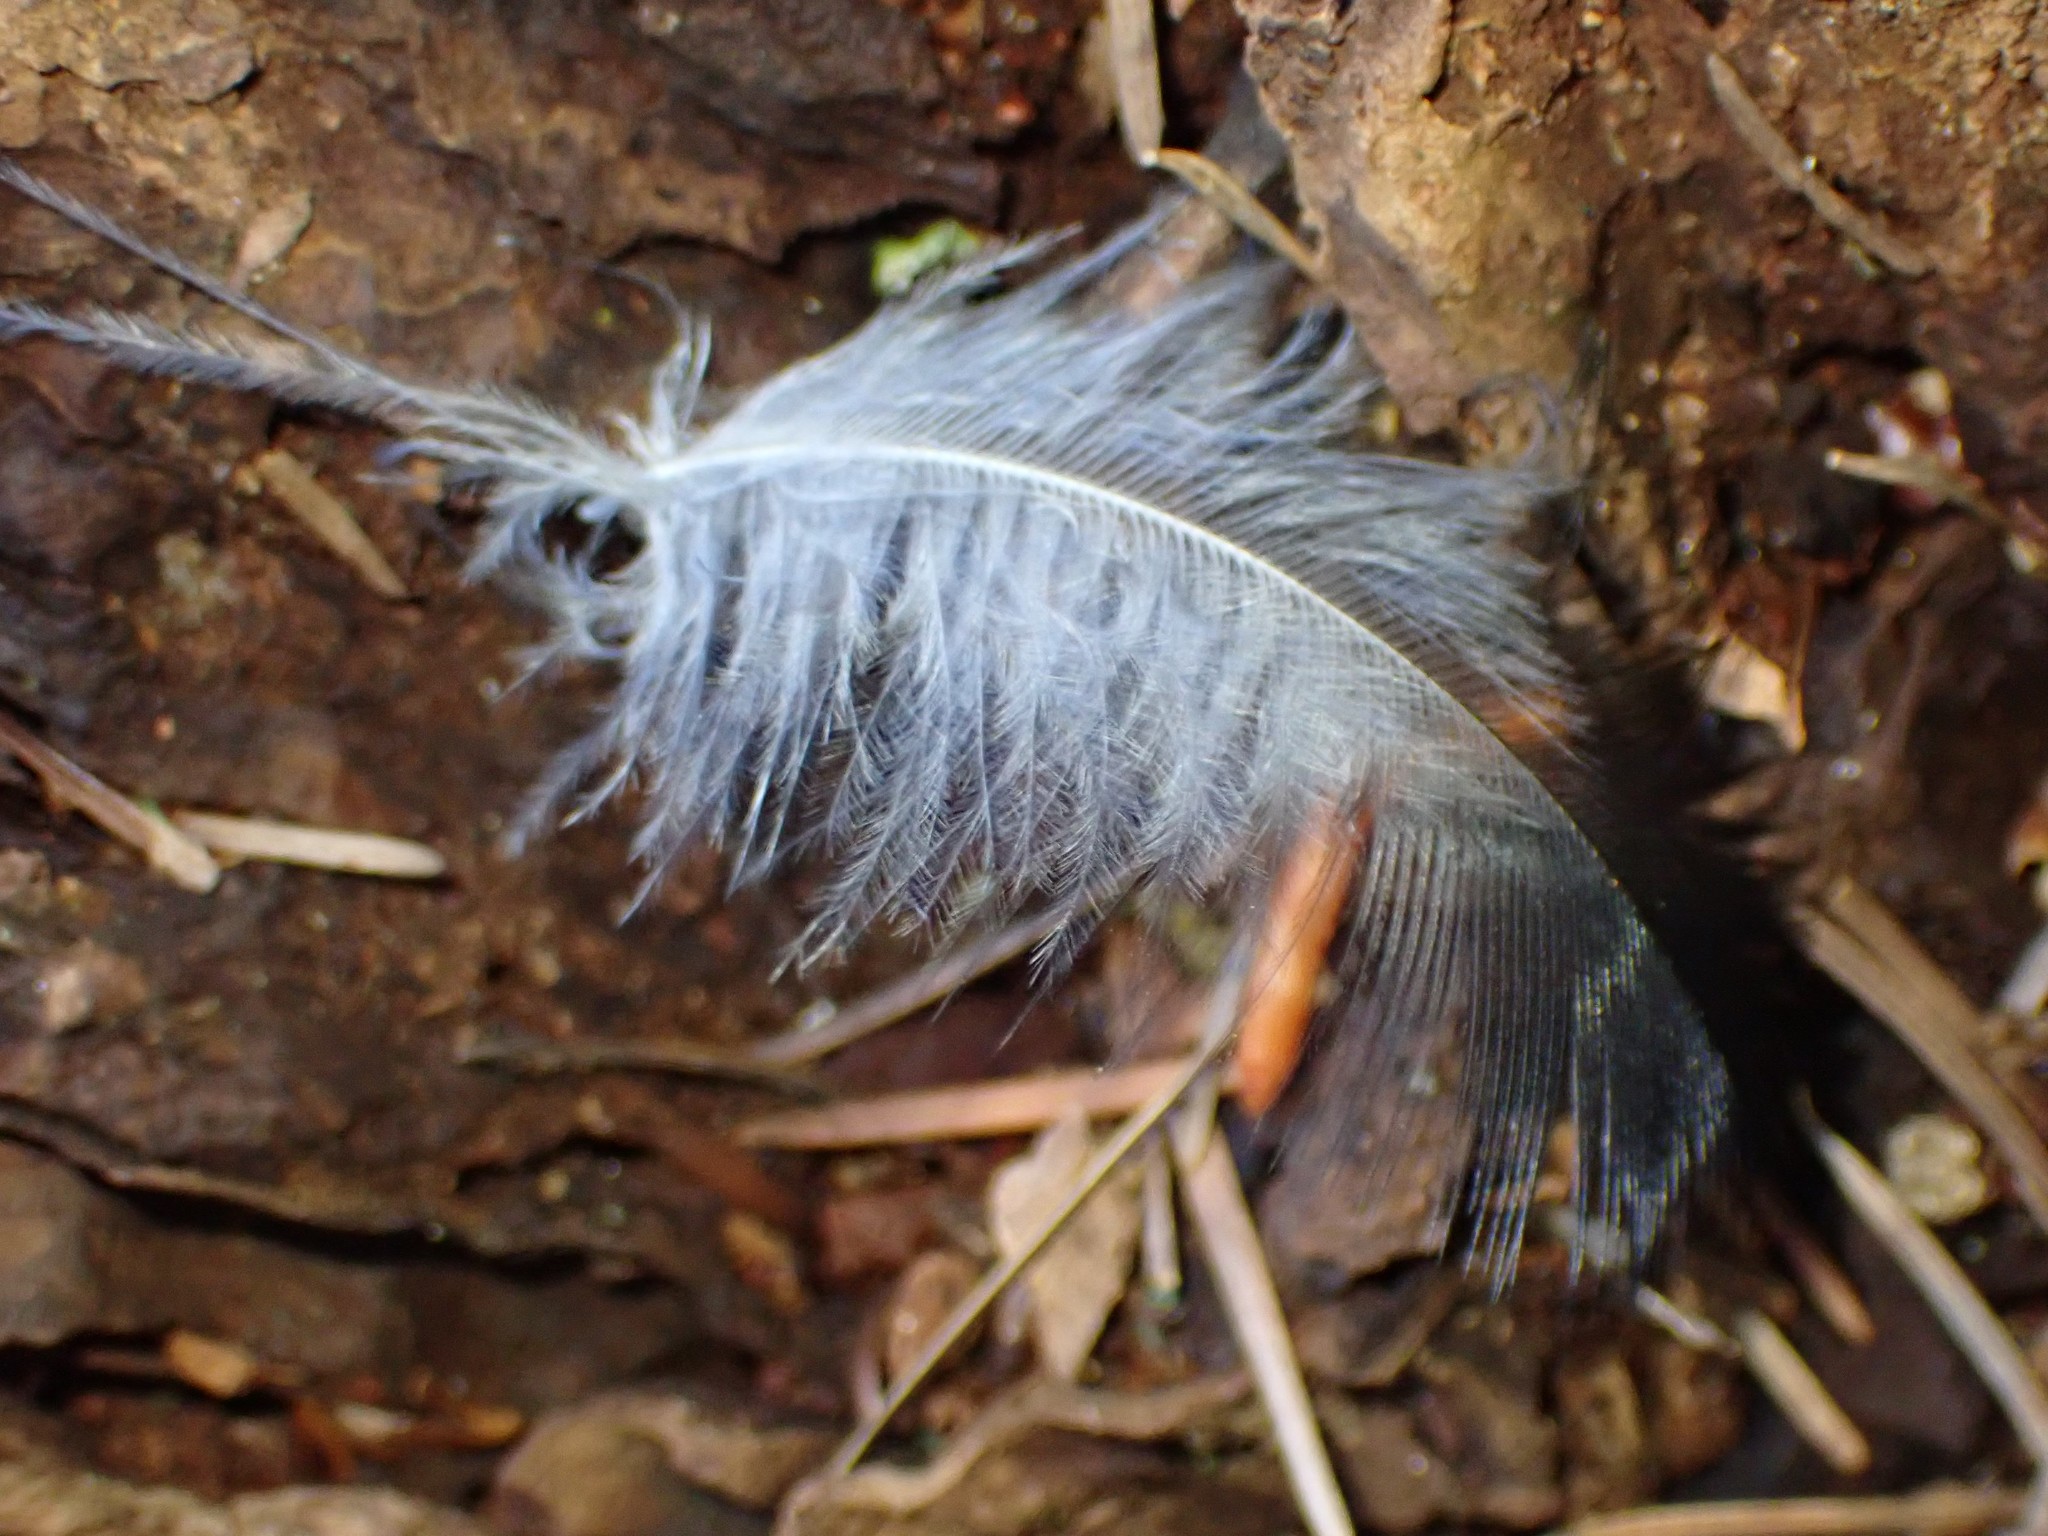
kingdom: Animalia
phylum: Chordata
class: Aves
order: Passeriformes
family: Corvidae
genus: Corvus
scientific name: Corvus brachyrhynchos
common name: American crow
